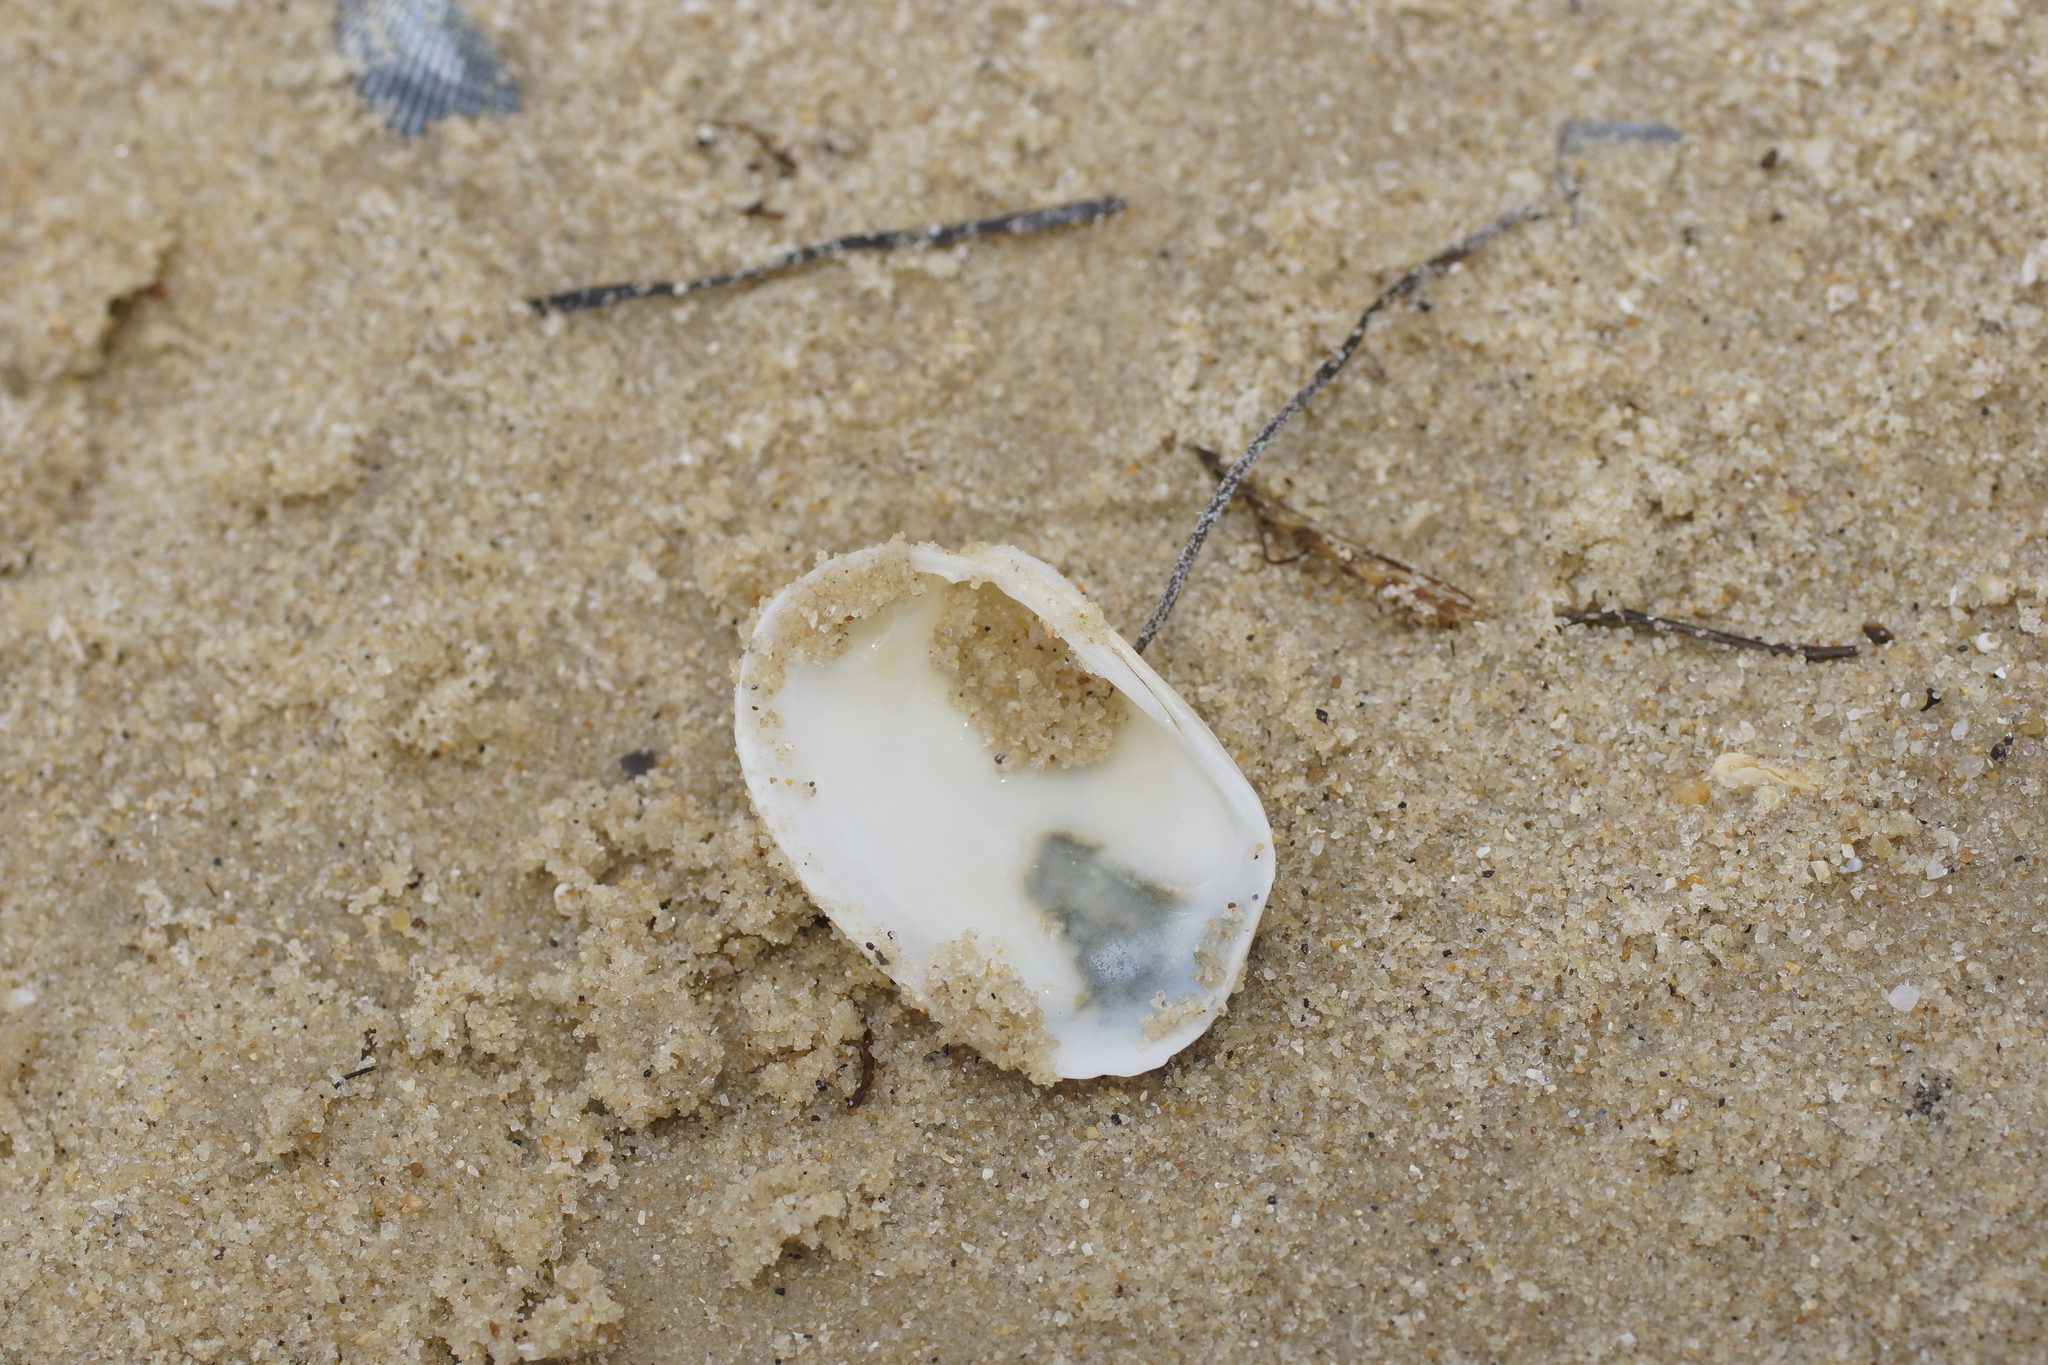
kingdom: Animalia
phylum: Mollusca
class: Bivalvia
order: Venerida
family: Veneridae
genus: Venerupis
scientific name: Venerupis galactites
